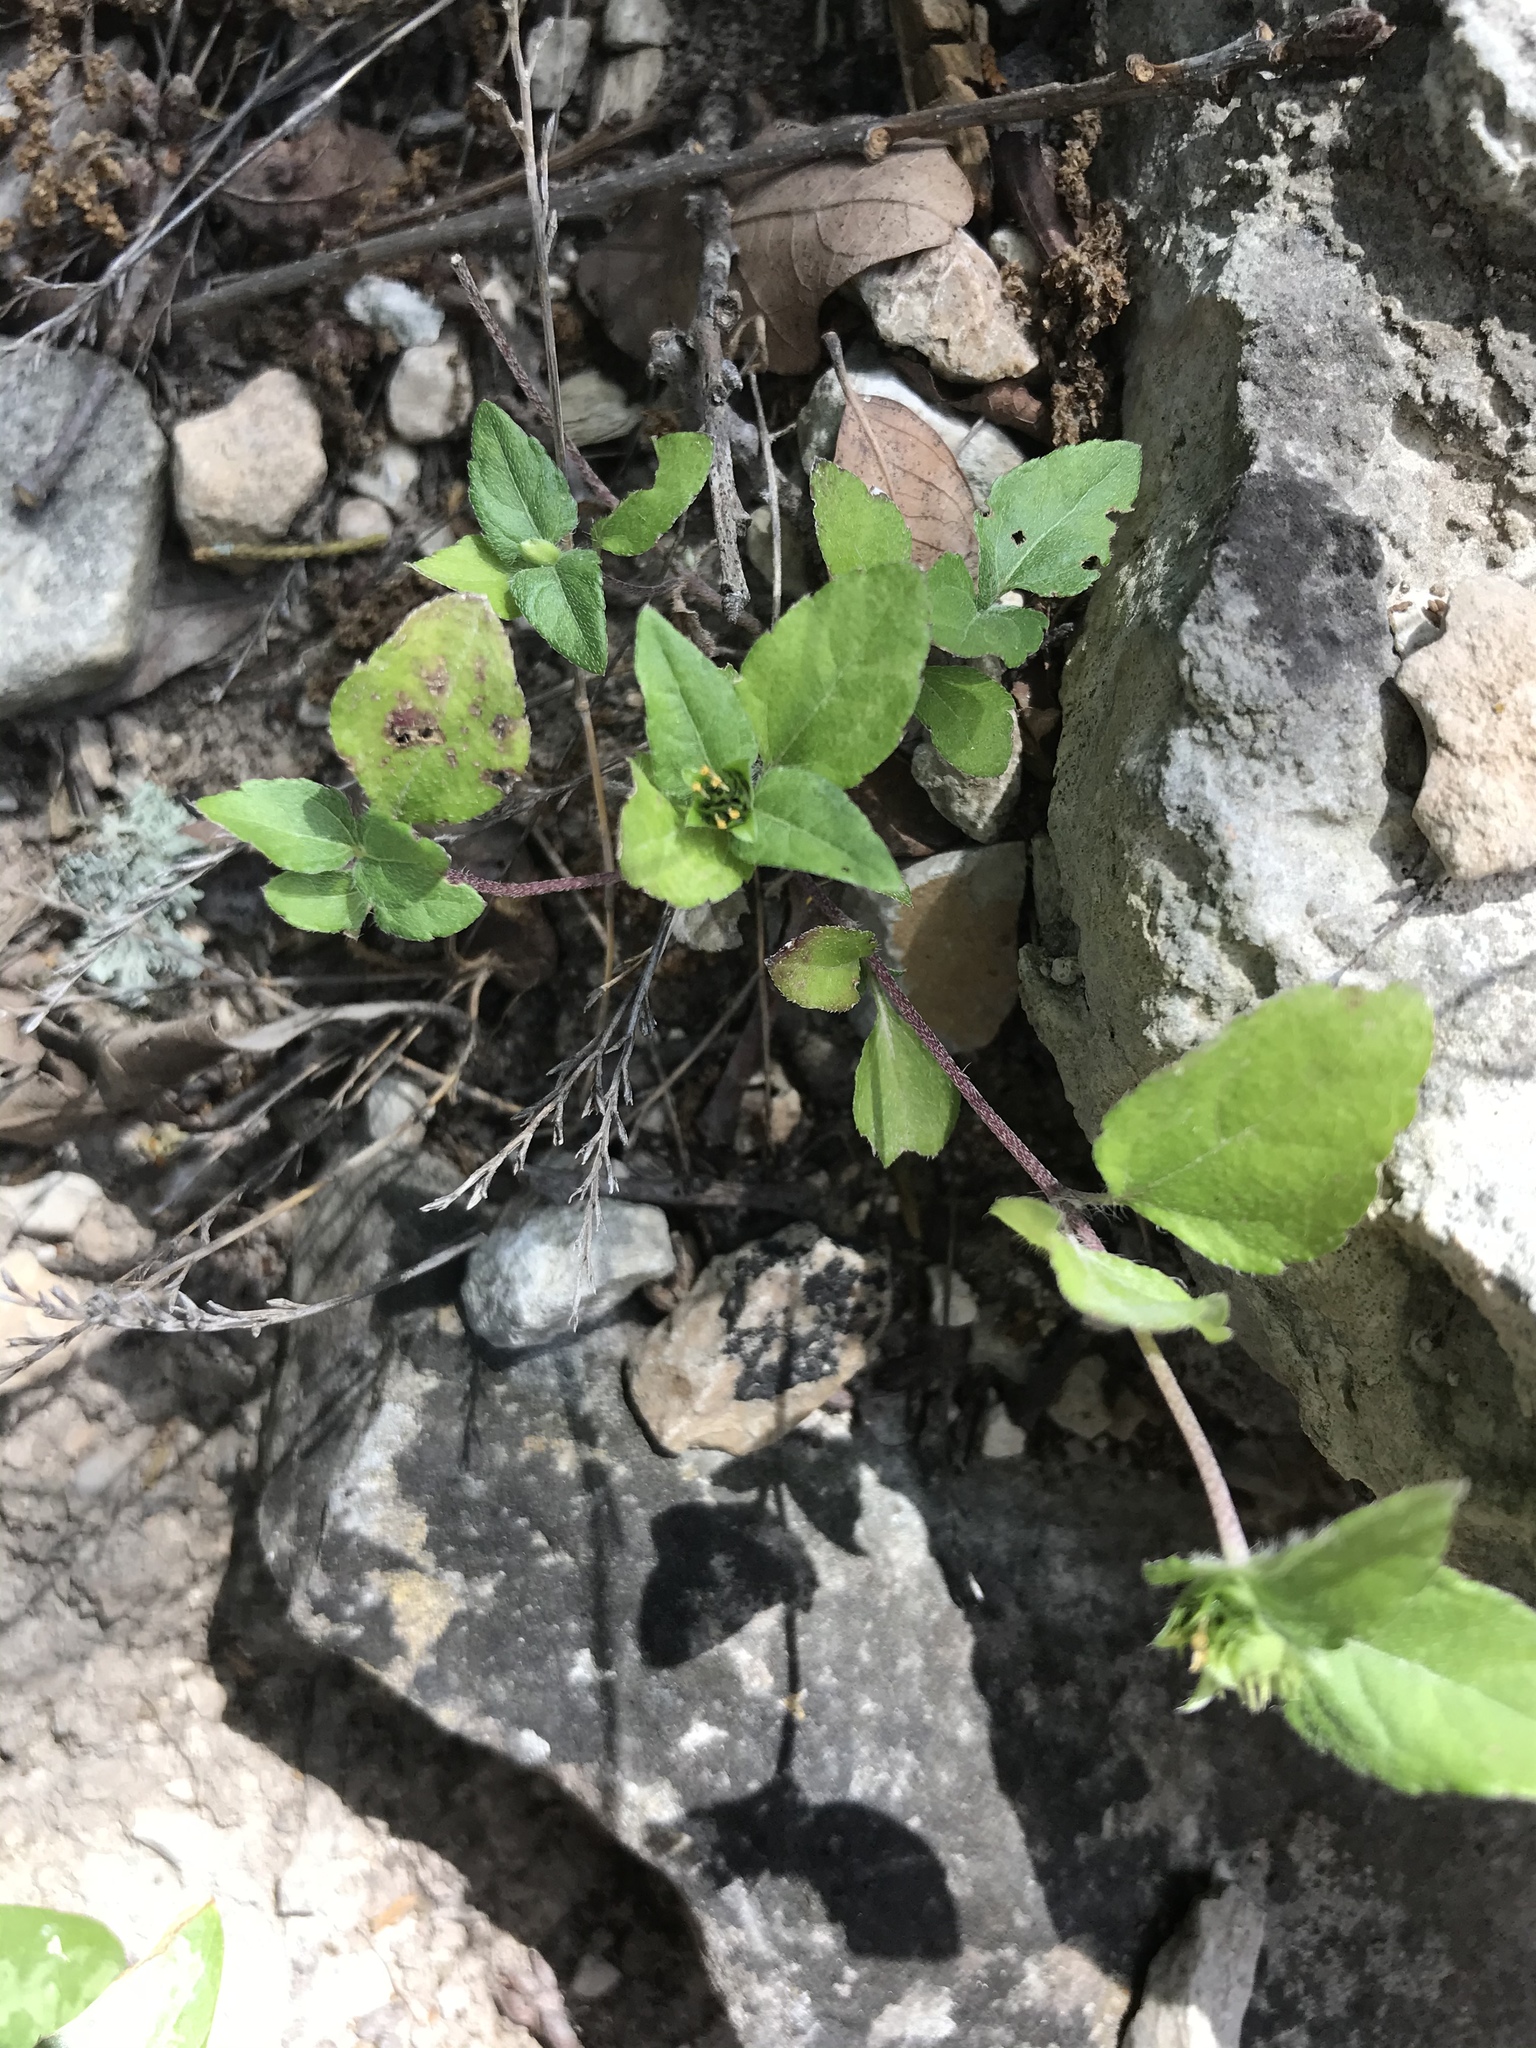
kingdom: Plantae
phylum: Tracheophyta
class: Magnoliopsida
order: Asterales
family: Asteraceae
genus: Calyptocarpus
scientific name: Calyptocarpus vialis
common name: Straggler daisy
